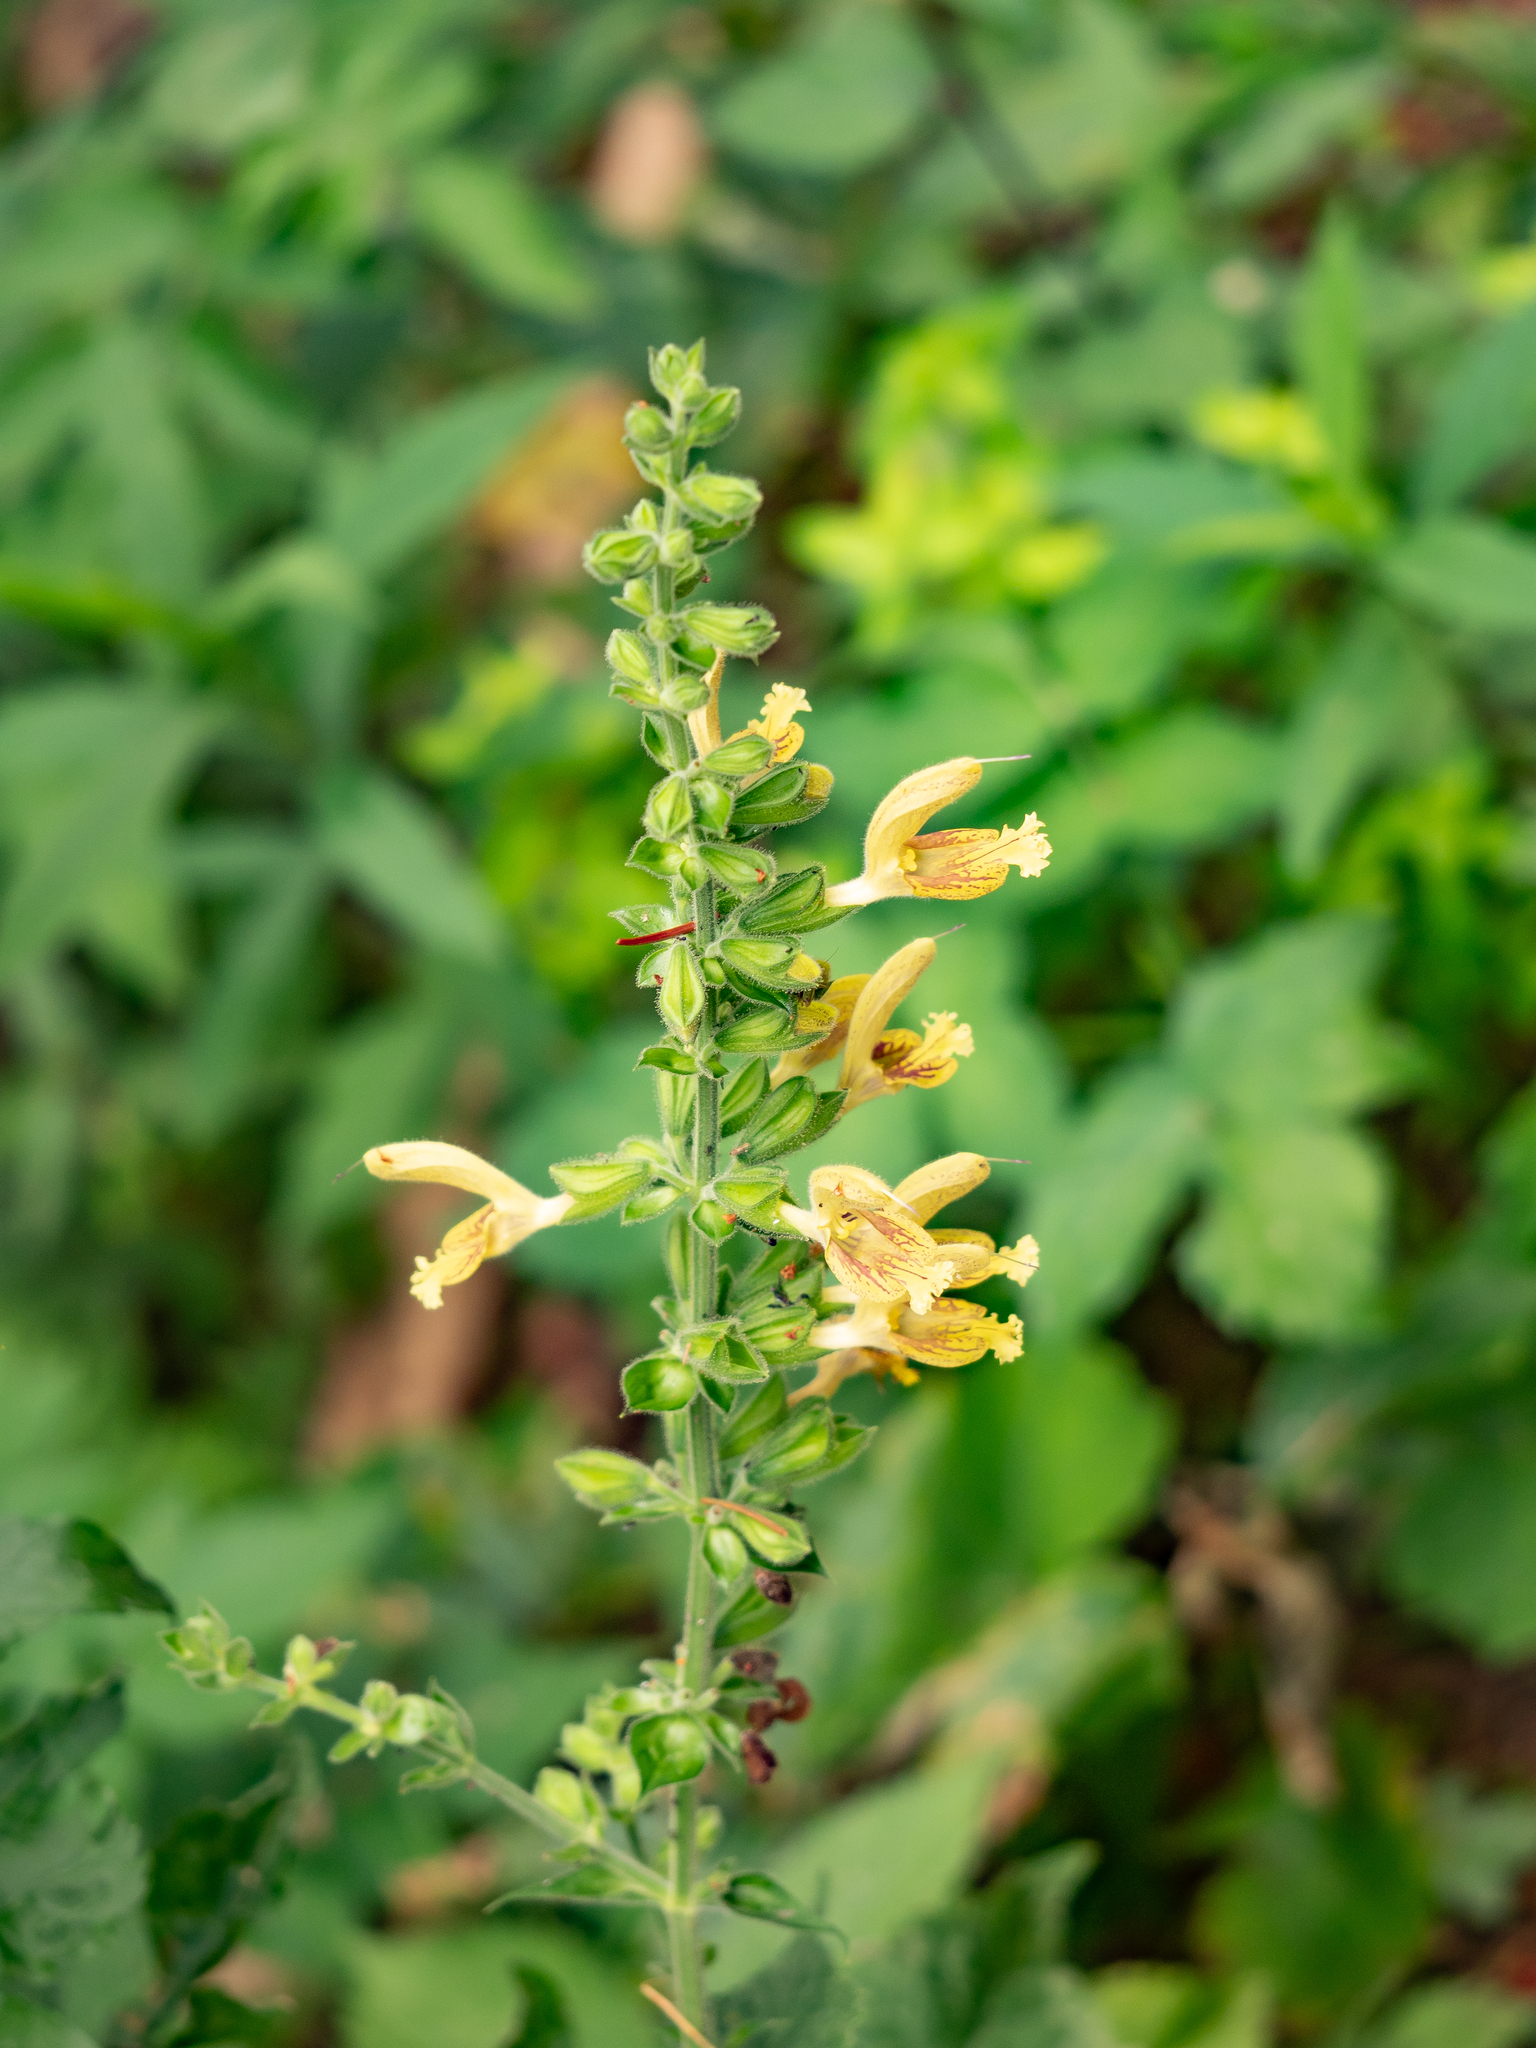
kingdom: Plantae
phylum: Tracheophyta
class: Magnoliopsida
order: Lamiales
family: Lamiaceae
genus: Salvia
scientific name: Salvia glutinosa
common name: Sticky clary
